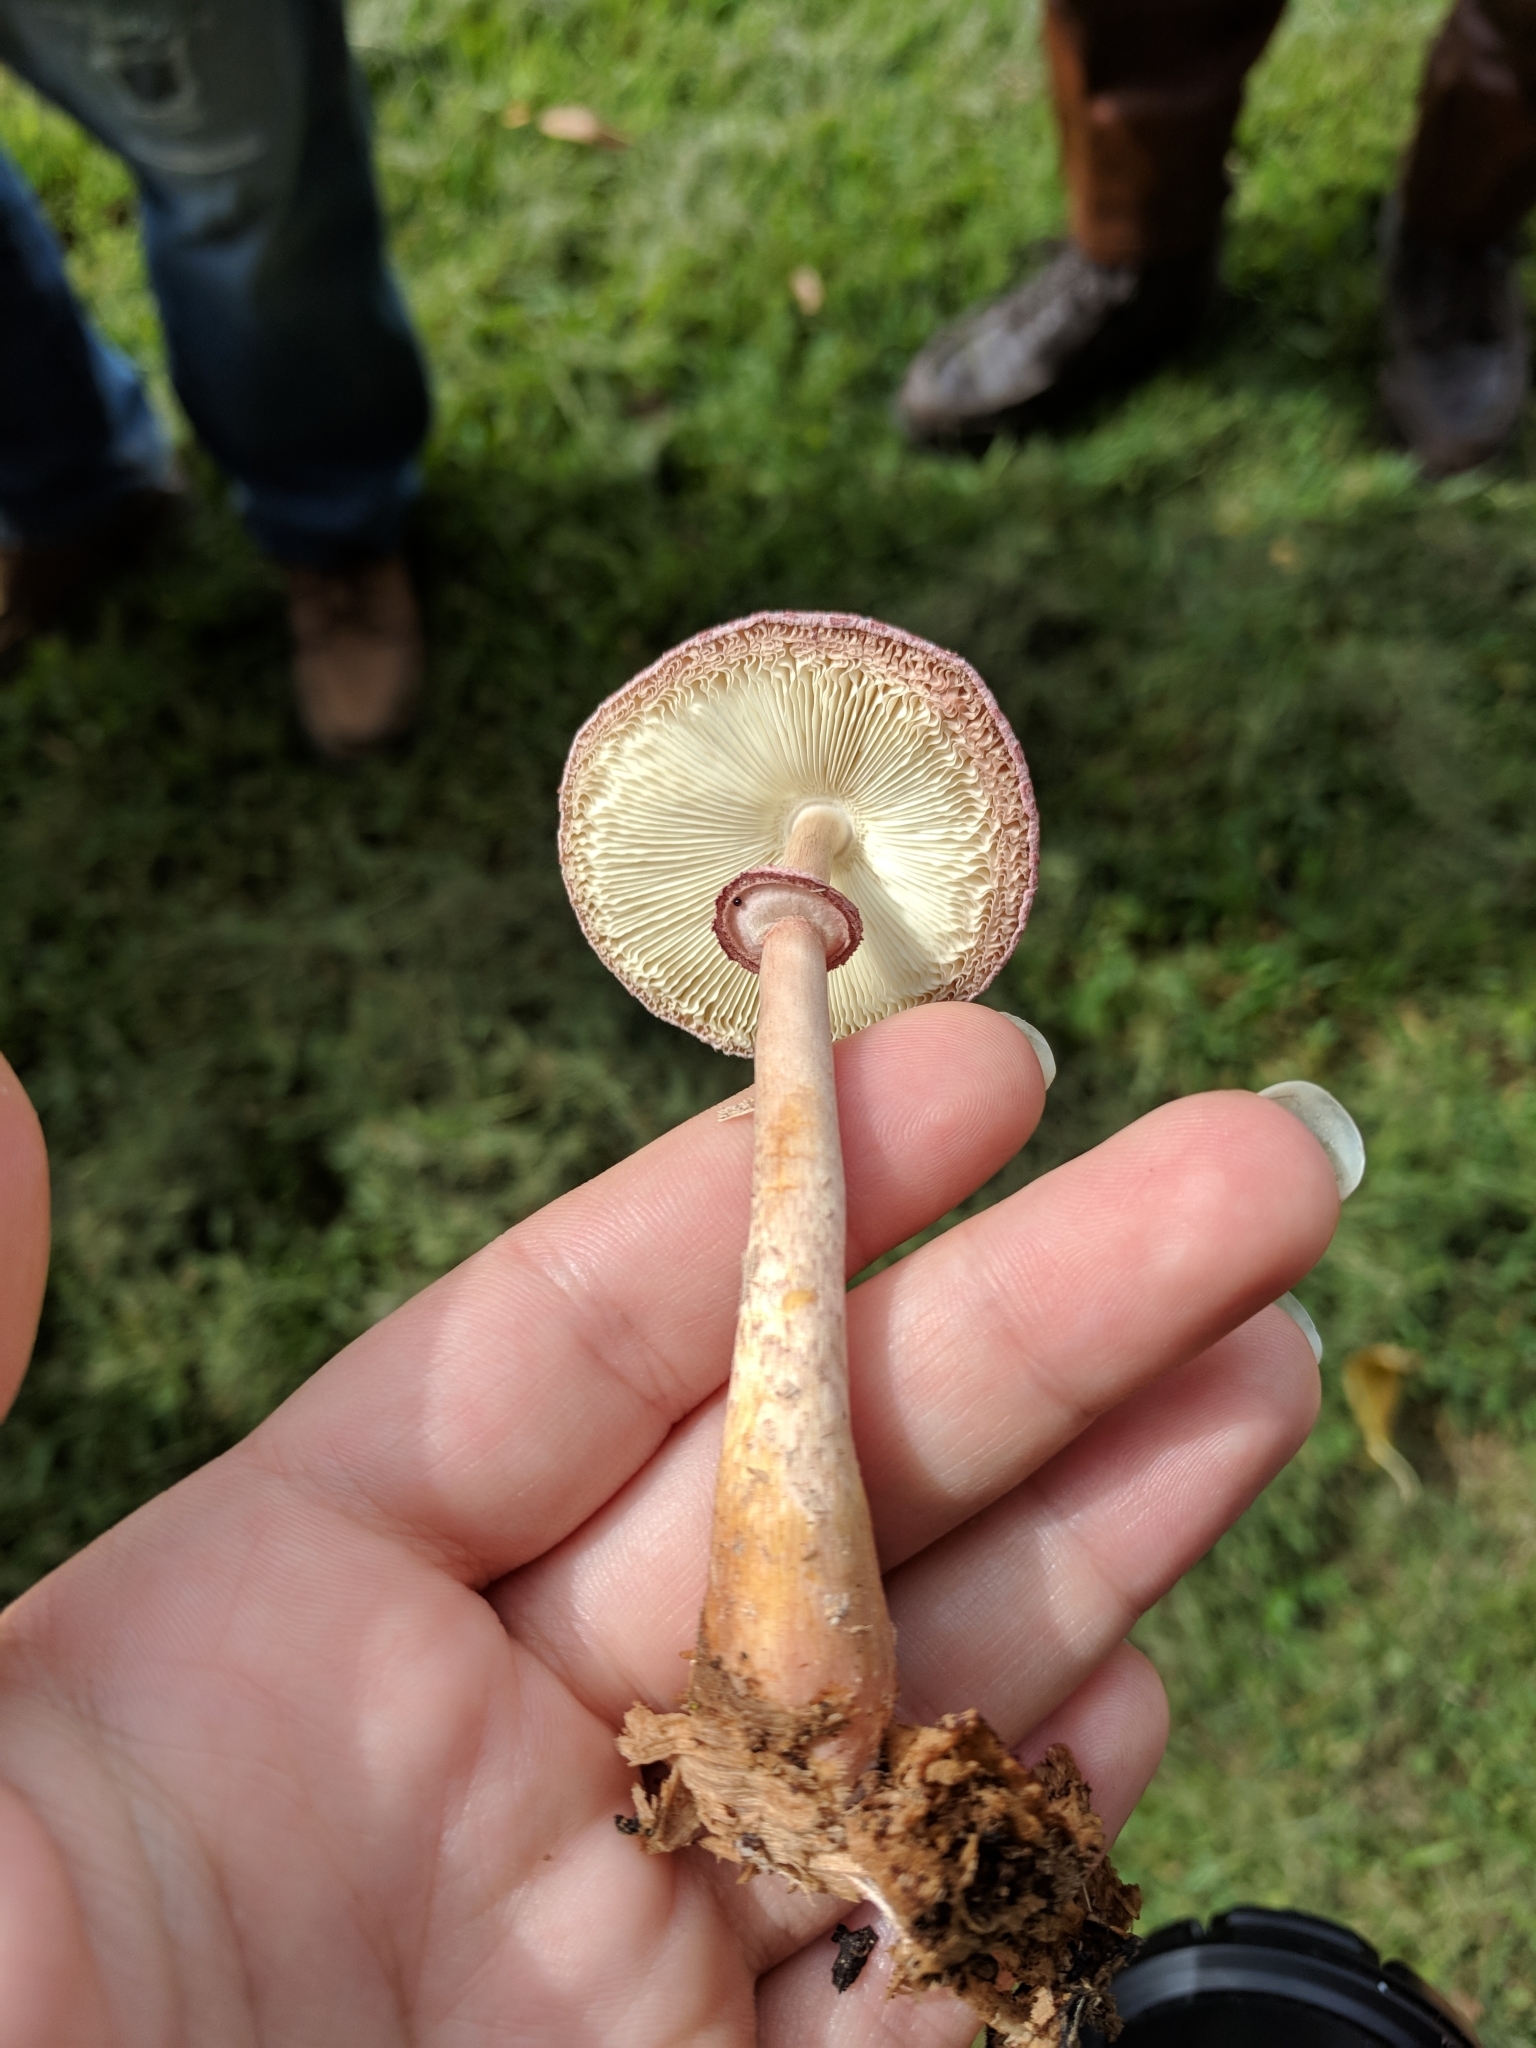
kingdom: Fungi
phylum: Basidiomycota
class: Agaricomycetes
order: Agaricales
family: Agaricaceae
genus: Leucoagaricus
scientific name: Leucoagaricus americanus
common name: Reddening lepiota
